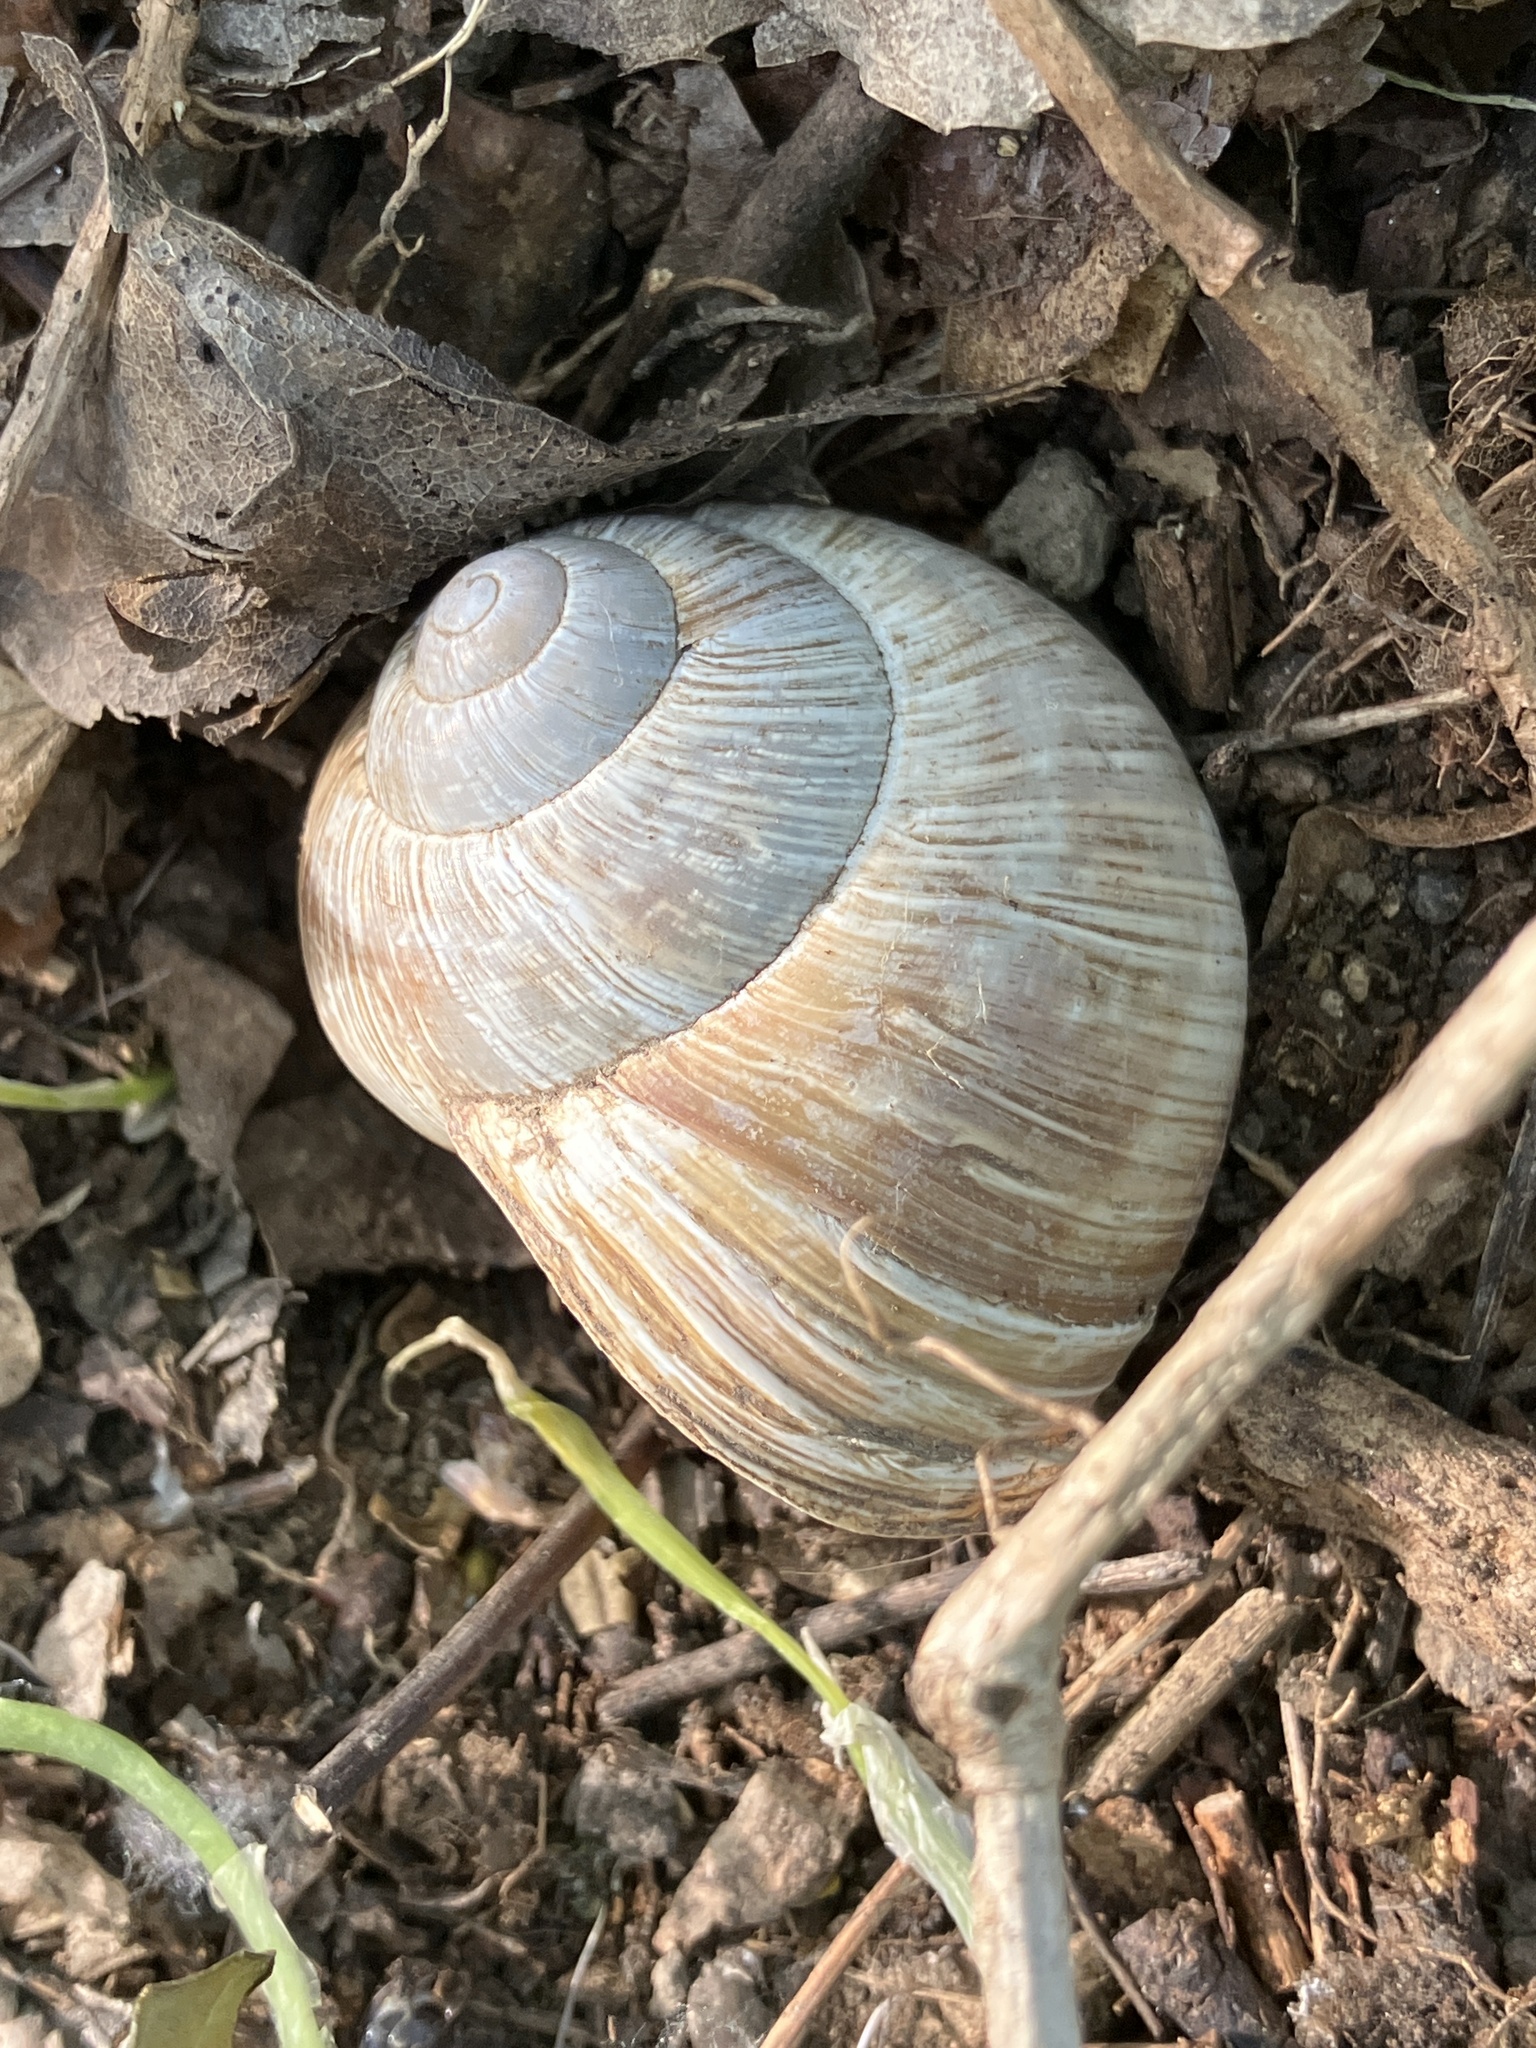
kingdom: Animalia
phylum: Mollusca
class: Gastropoda
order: Stylommatophora
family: Helicidae
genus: Helix
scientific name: Helix pomatia
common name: Roman snail
